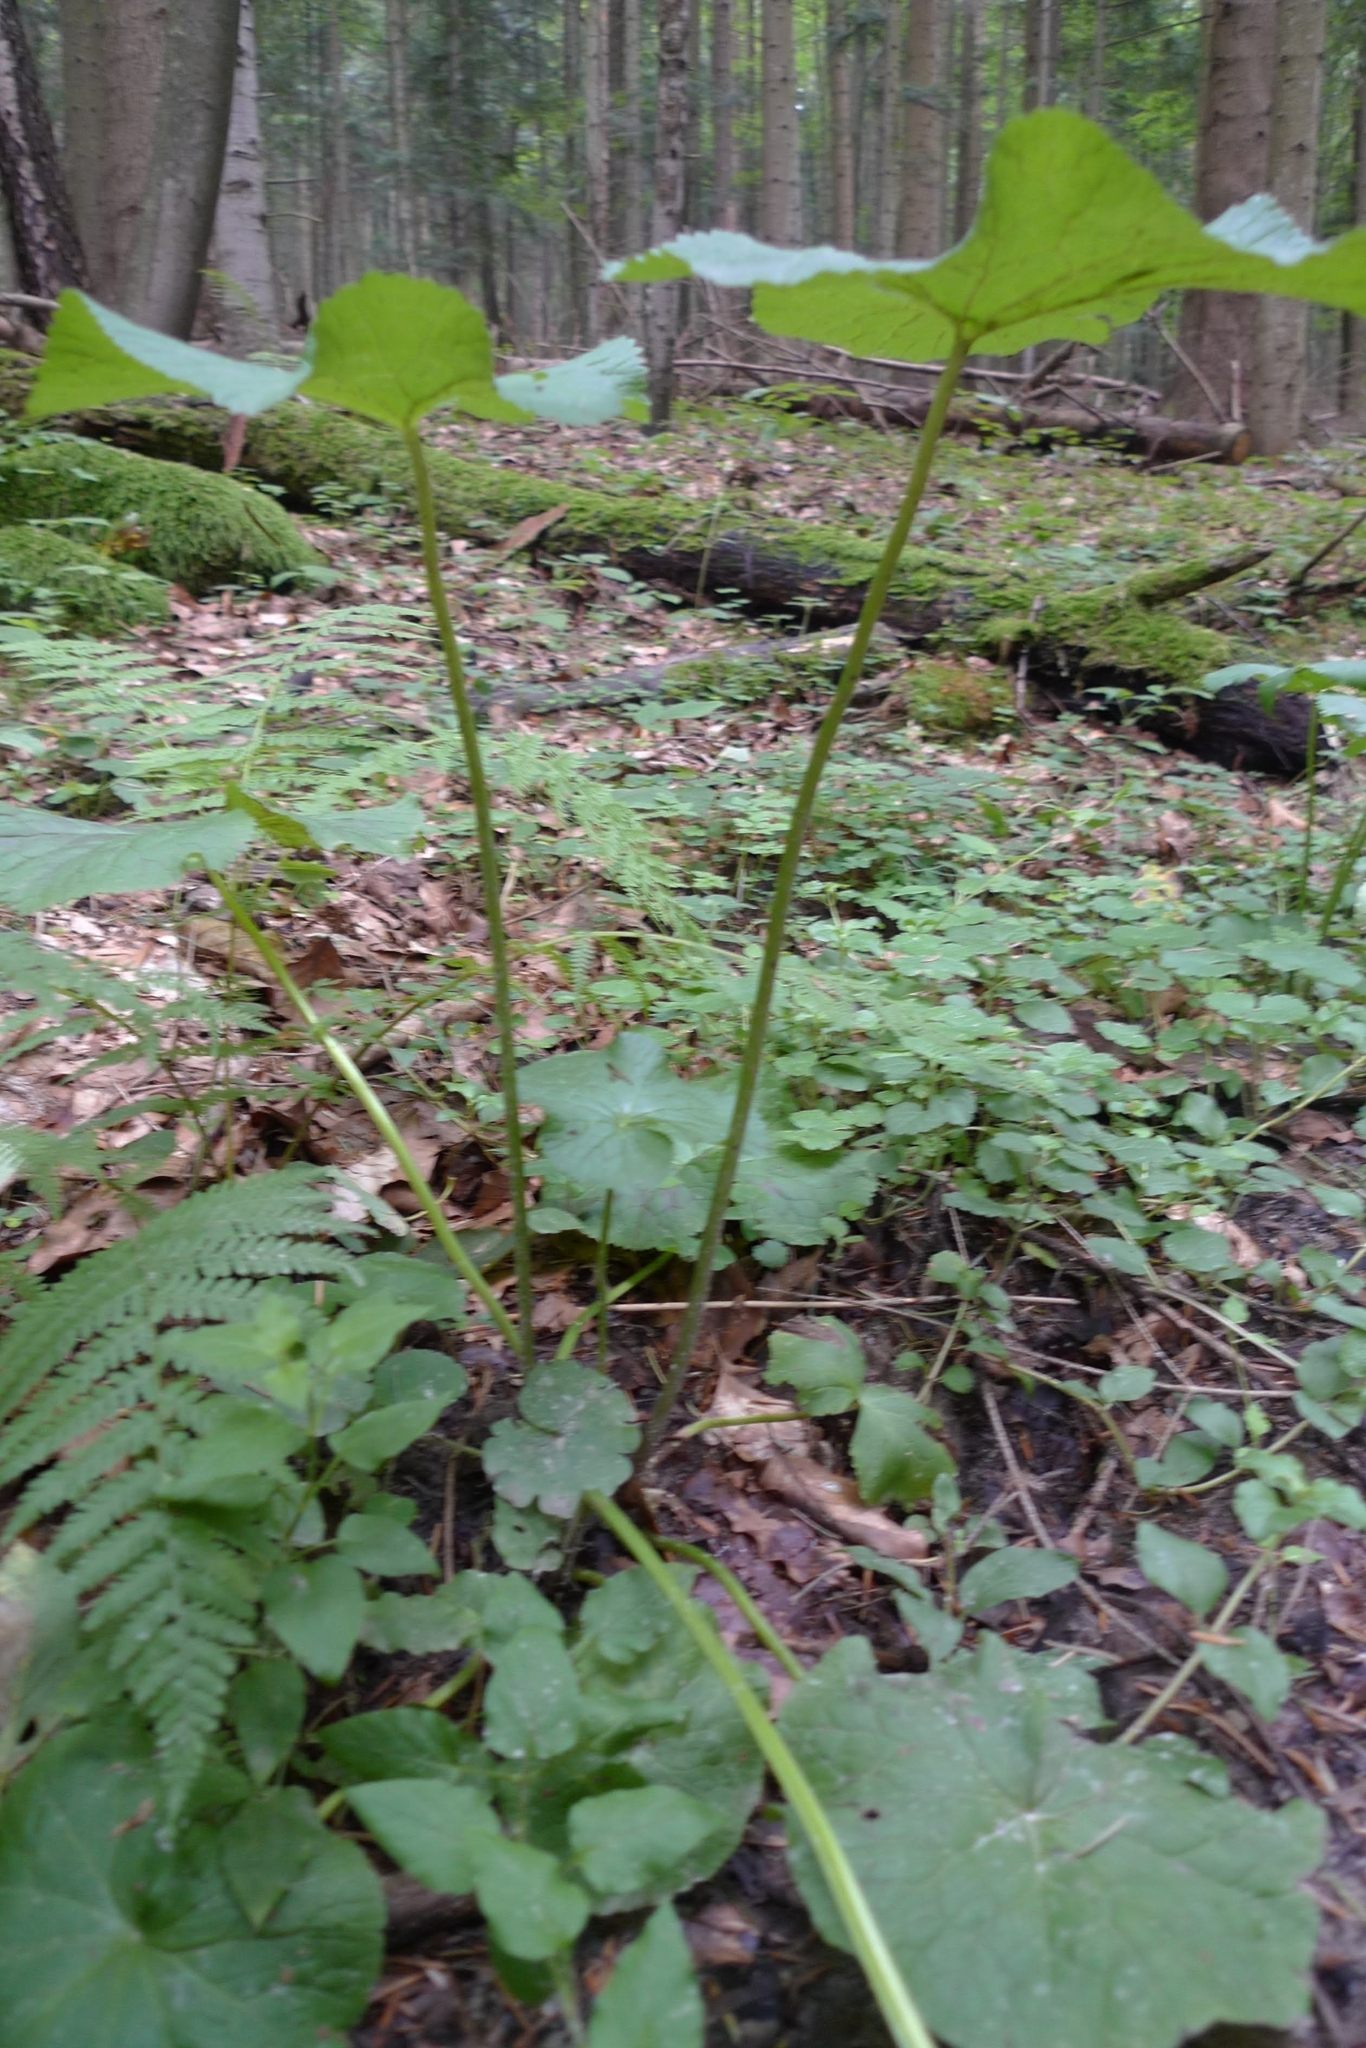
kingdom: Plantae
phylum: Tracheophyta
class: Magnoliopsida
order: Ranunculales
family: Ranunculaceae
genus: Caltha
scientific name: Caltha palustris
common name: Marsh marigold
